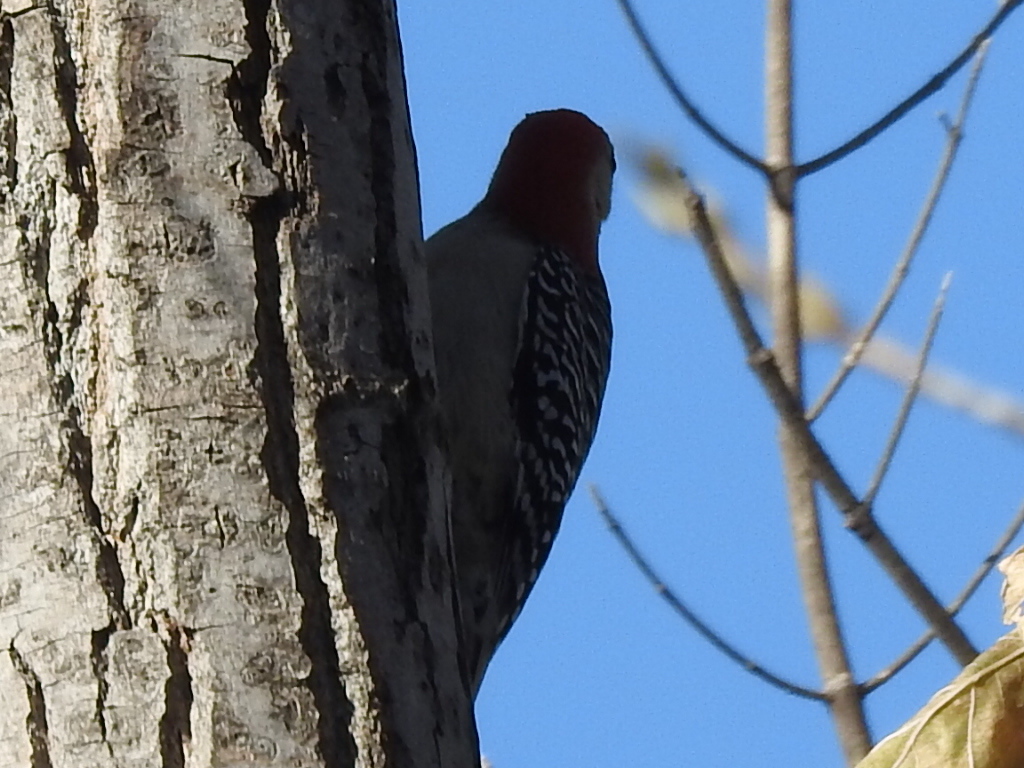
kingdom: Animalia
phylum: Chordata
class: Aves
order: Piciformes
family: Picidae
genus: Melanerpes
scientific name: Melanerpes carolinus
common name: Red-bellied woodpecker
